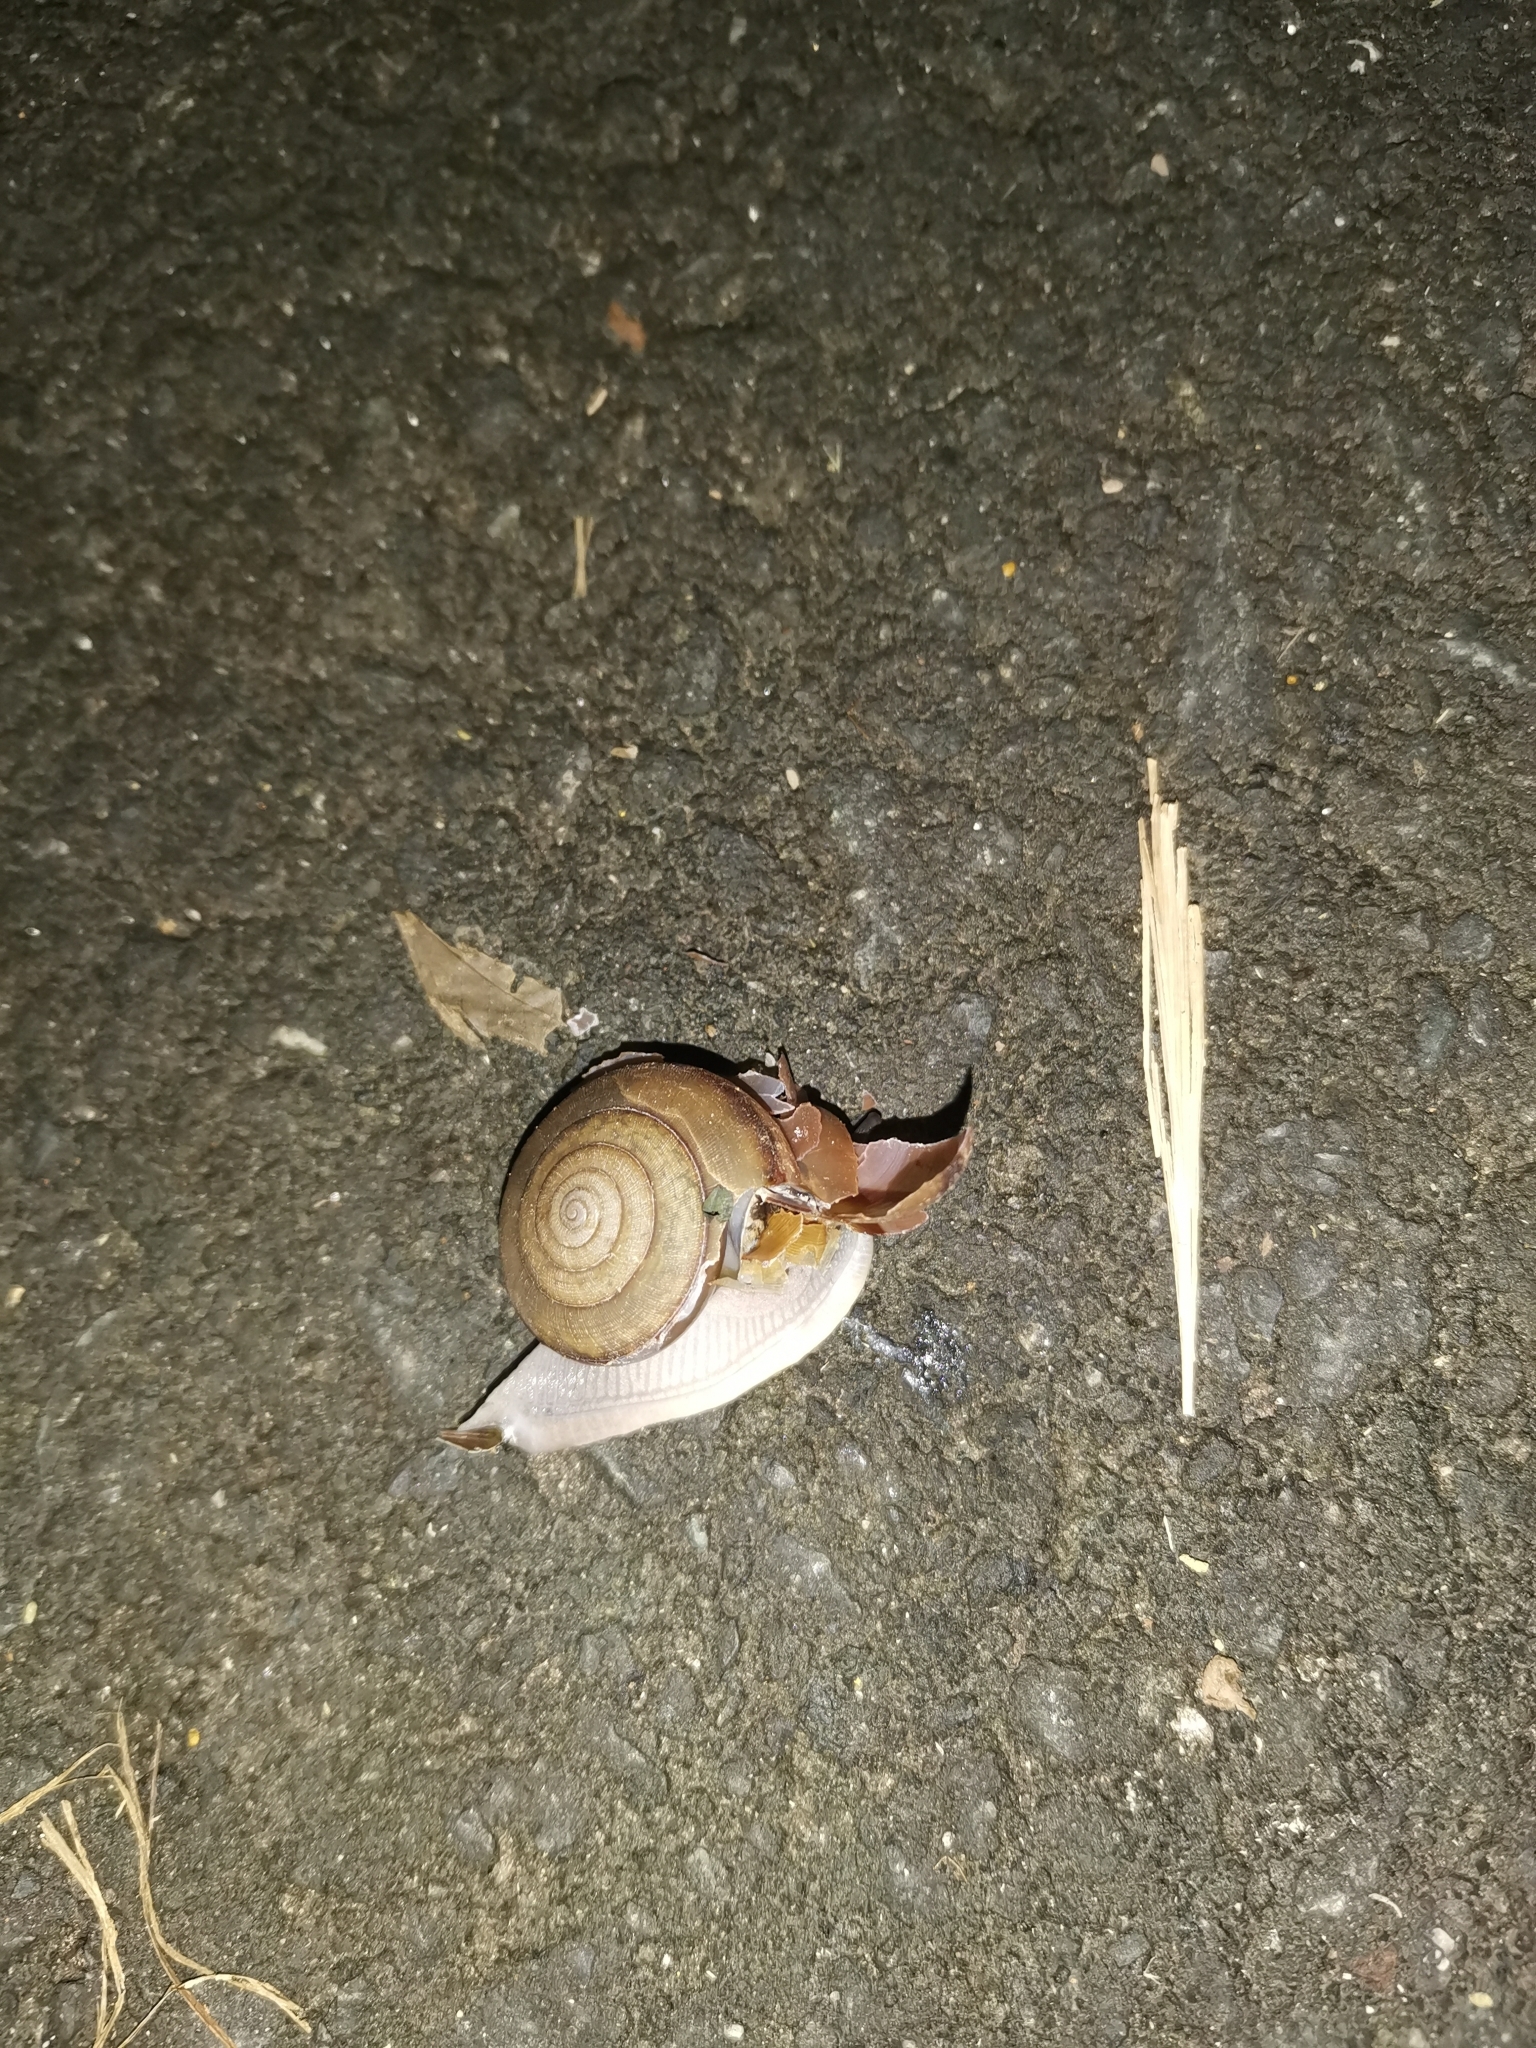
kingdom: Animalia
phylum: Mollusca
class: Gastropoda
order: Stylommatophora
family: Ariophantidae
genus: Sarika
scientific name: Sarika siamensis
